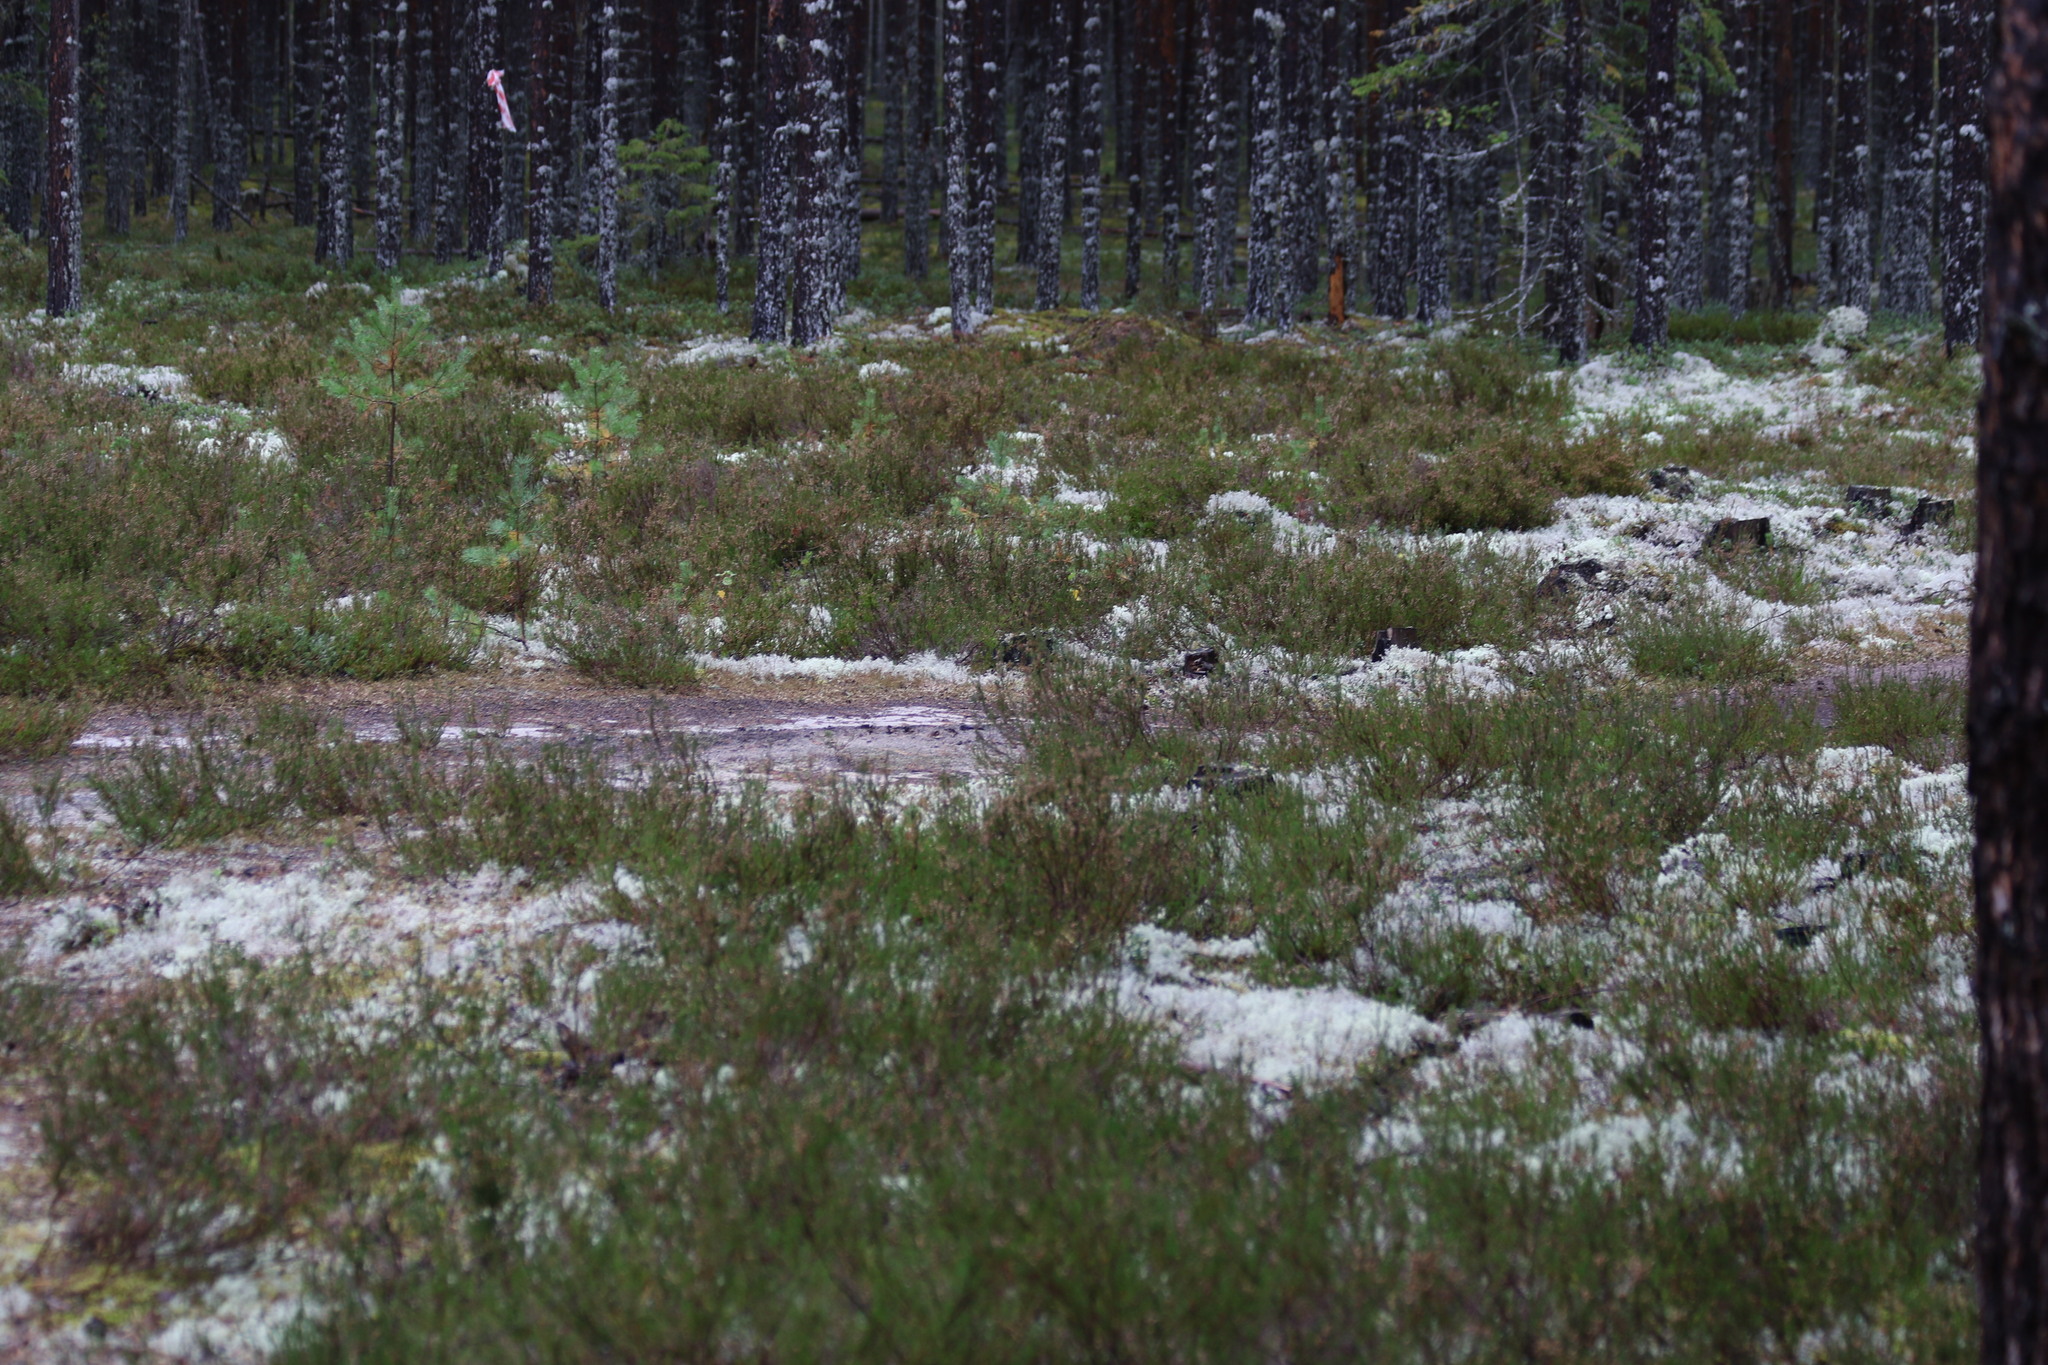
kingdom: Plantae
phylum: Tracheophyta
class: Magnoliopsida
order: Ericales
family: Ericaceae
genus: Calluna
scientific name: Calluna vulgaris
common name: Heather
